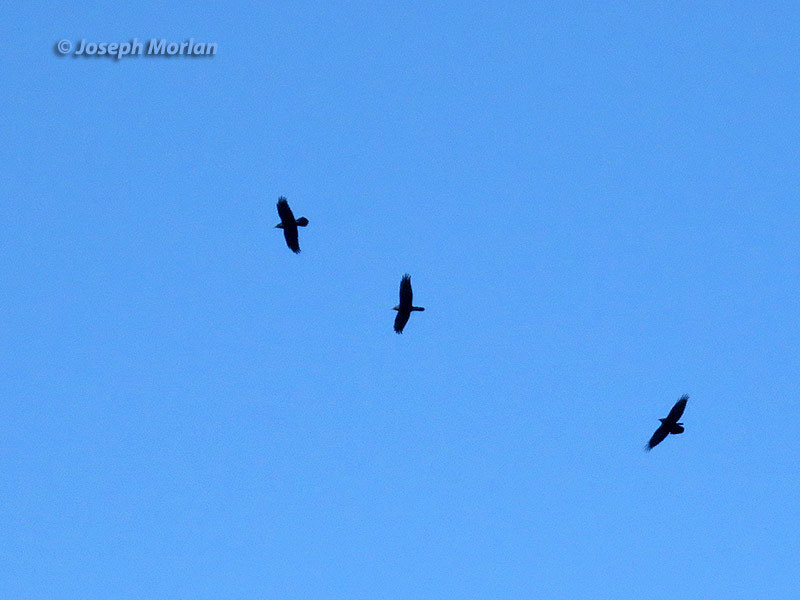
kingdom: Animalia
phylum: Chordata
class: Aves
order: Passeriformes
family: Corvidae
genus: Corvus
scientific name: Corvus corax
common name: Common raven
